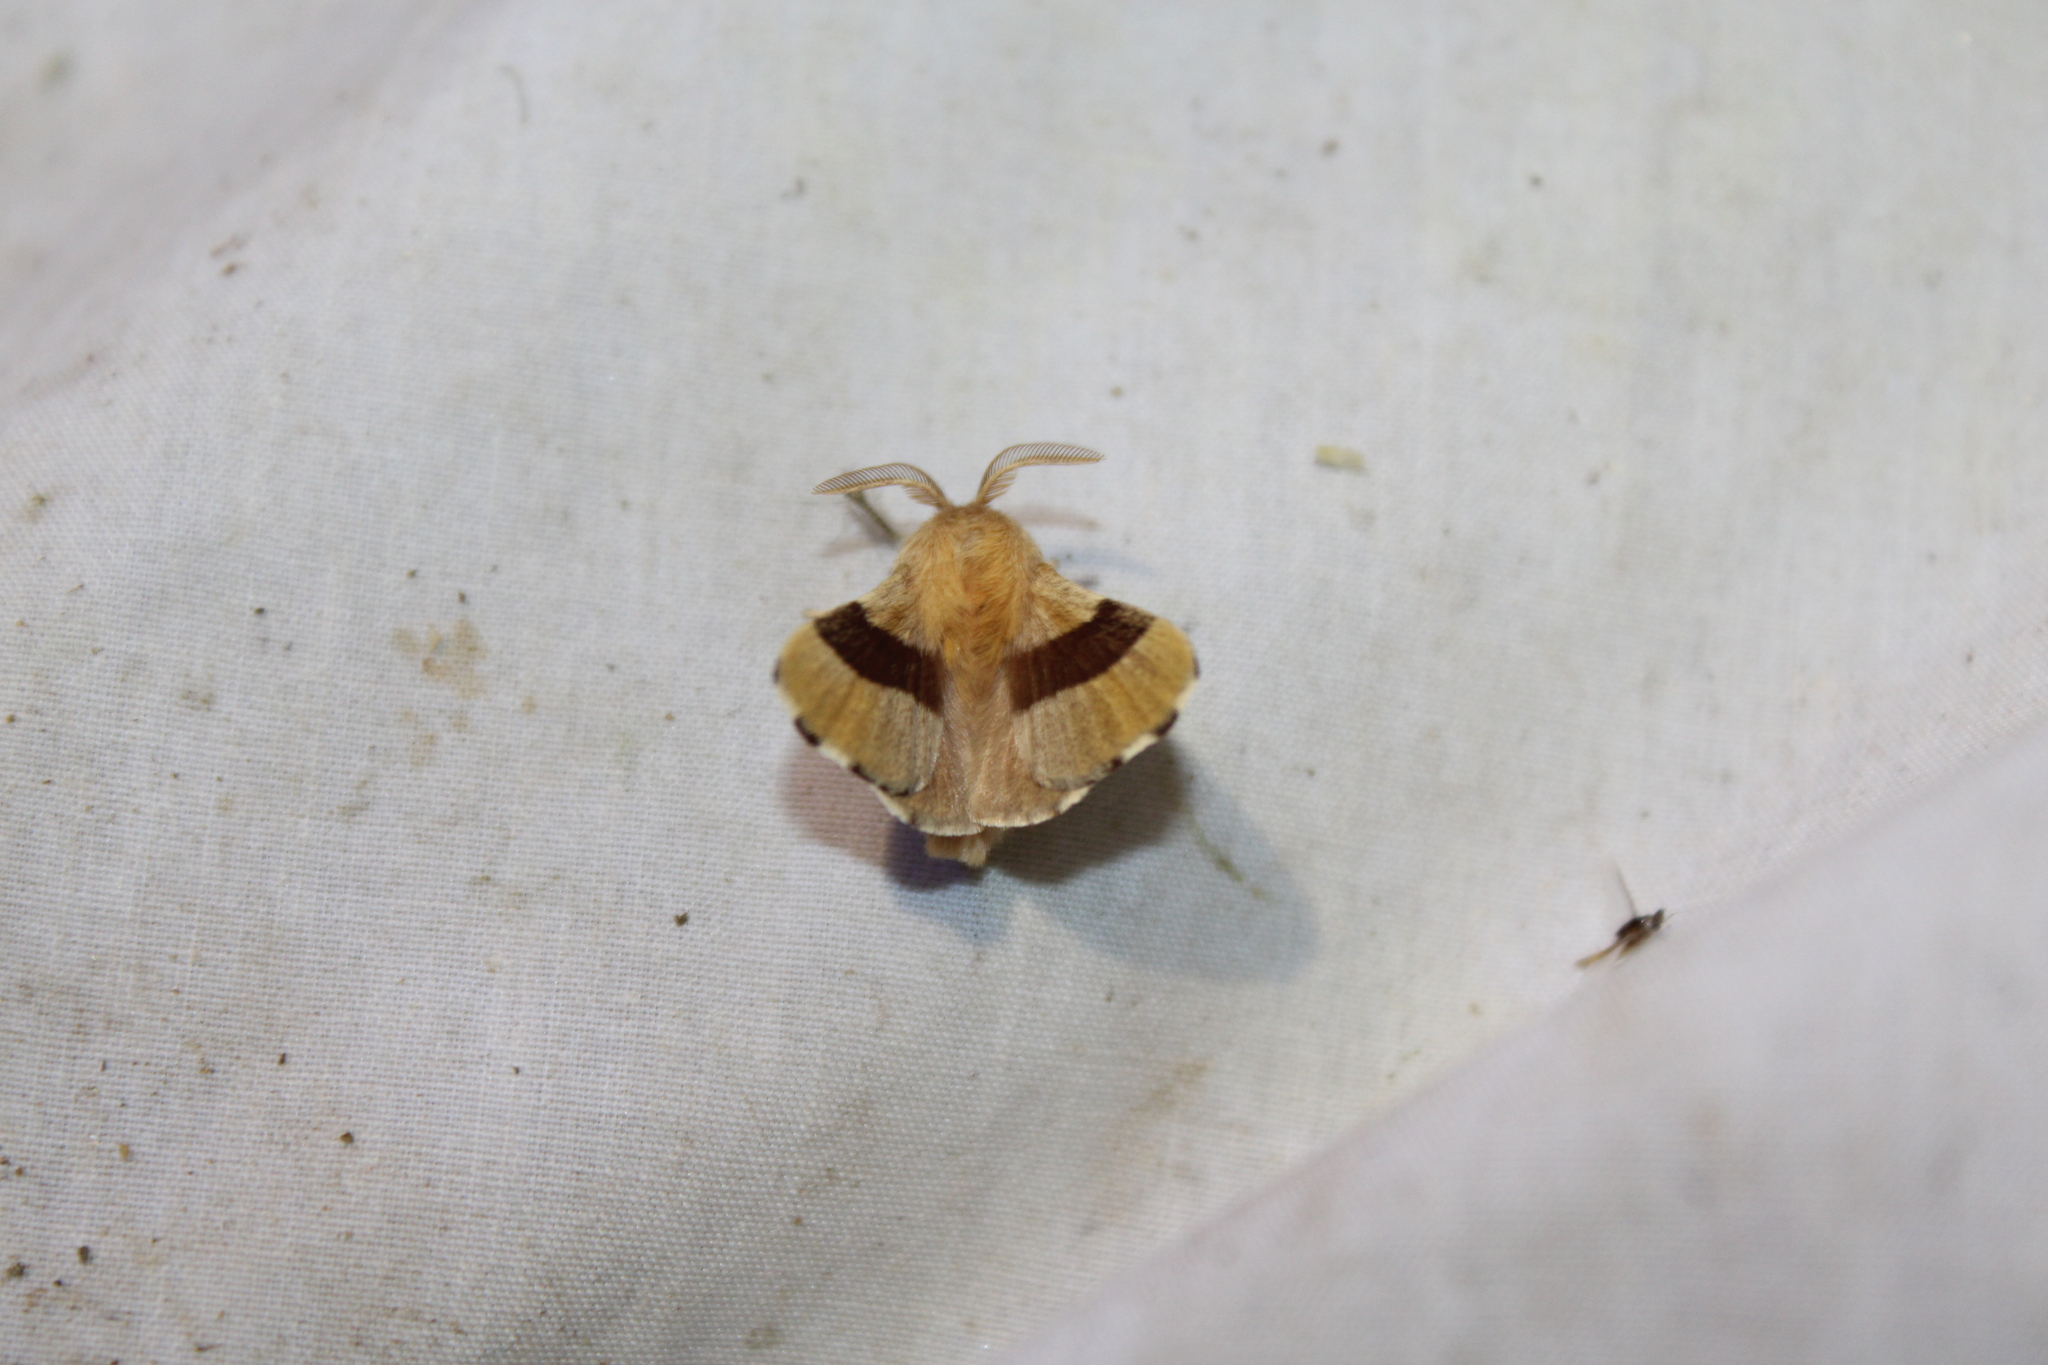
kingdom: Animalia
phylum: Arthropoda
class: Insecta
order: Lepidoptera
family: Lasiocampidae
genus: Malacosoma
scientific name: Malacosoma disstria
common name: Forest tent caterpillar
